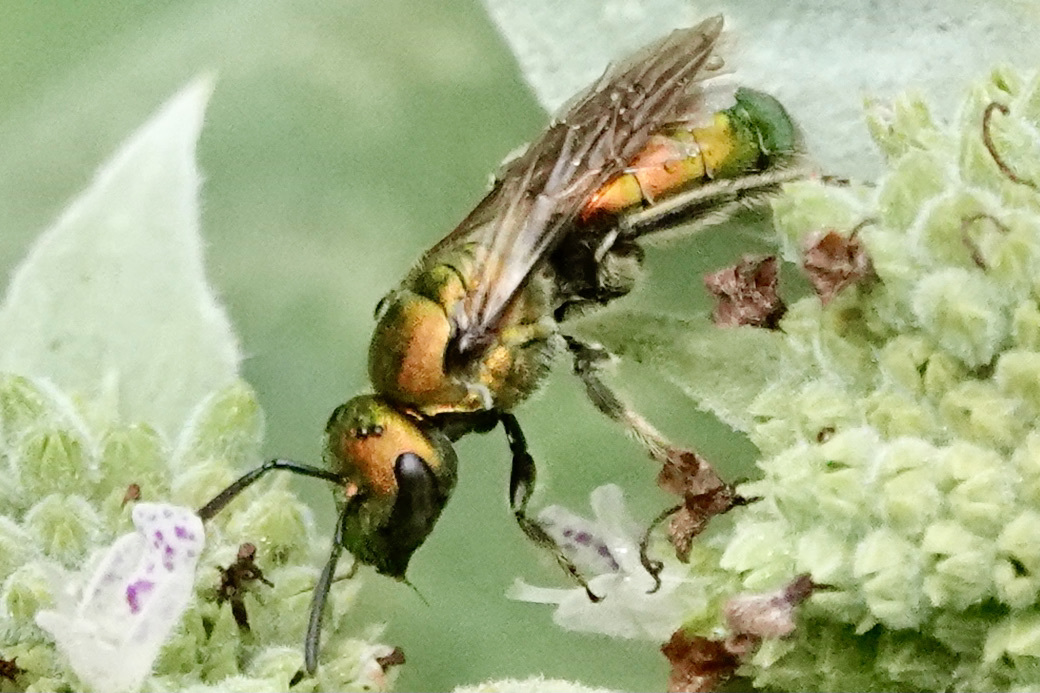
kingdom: Animalia
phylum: Arthropoda
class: Insecta
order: Hymenoptera
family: Halictidae
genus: Augochlora
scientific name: Augochlora pura
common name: Pure green sweat bee
